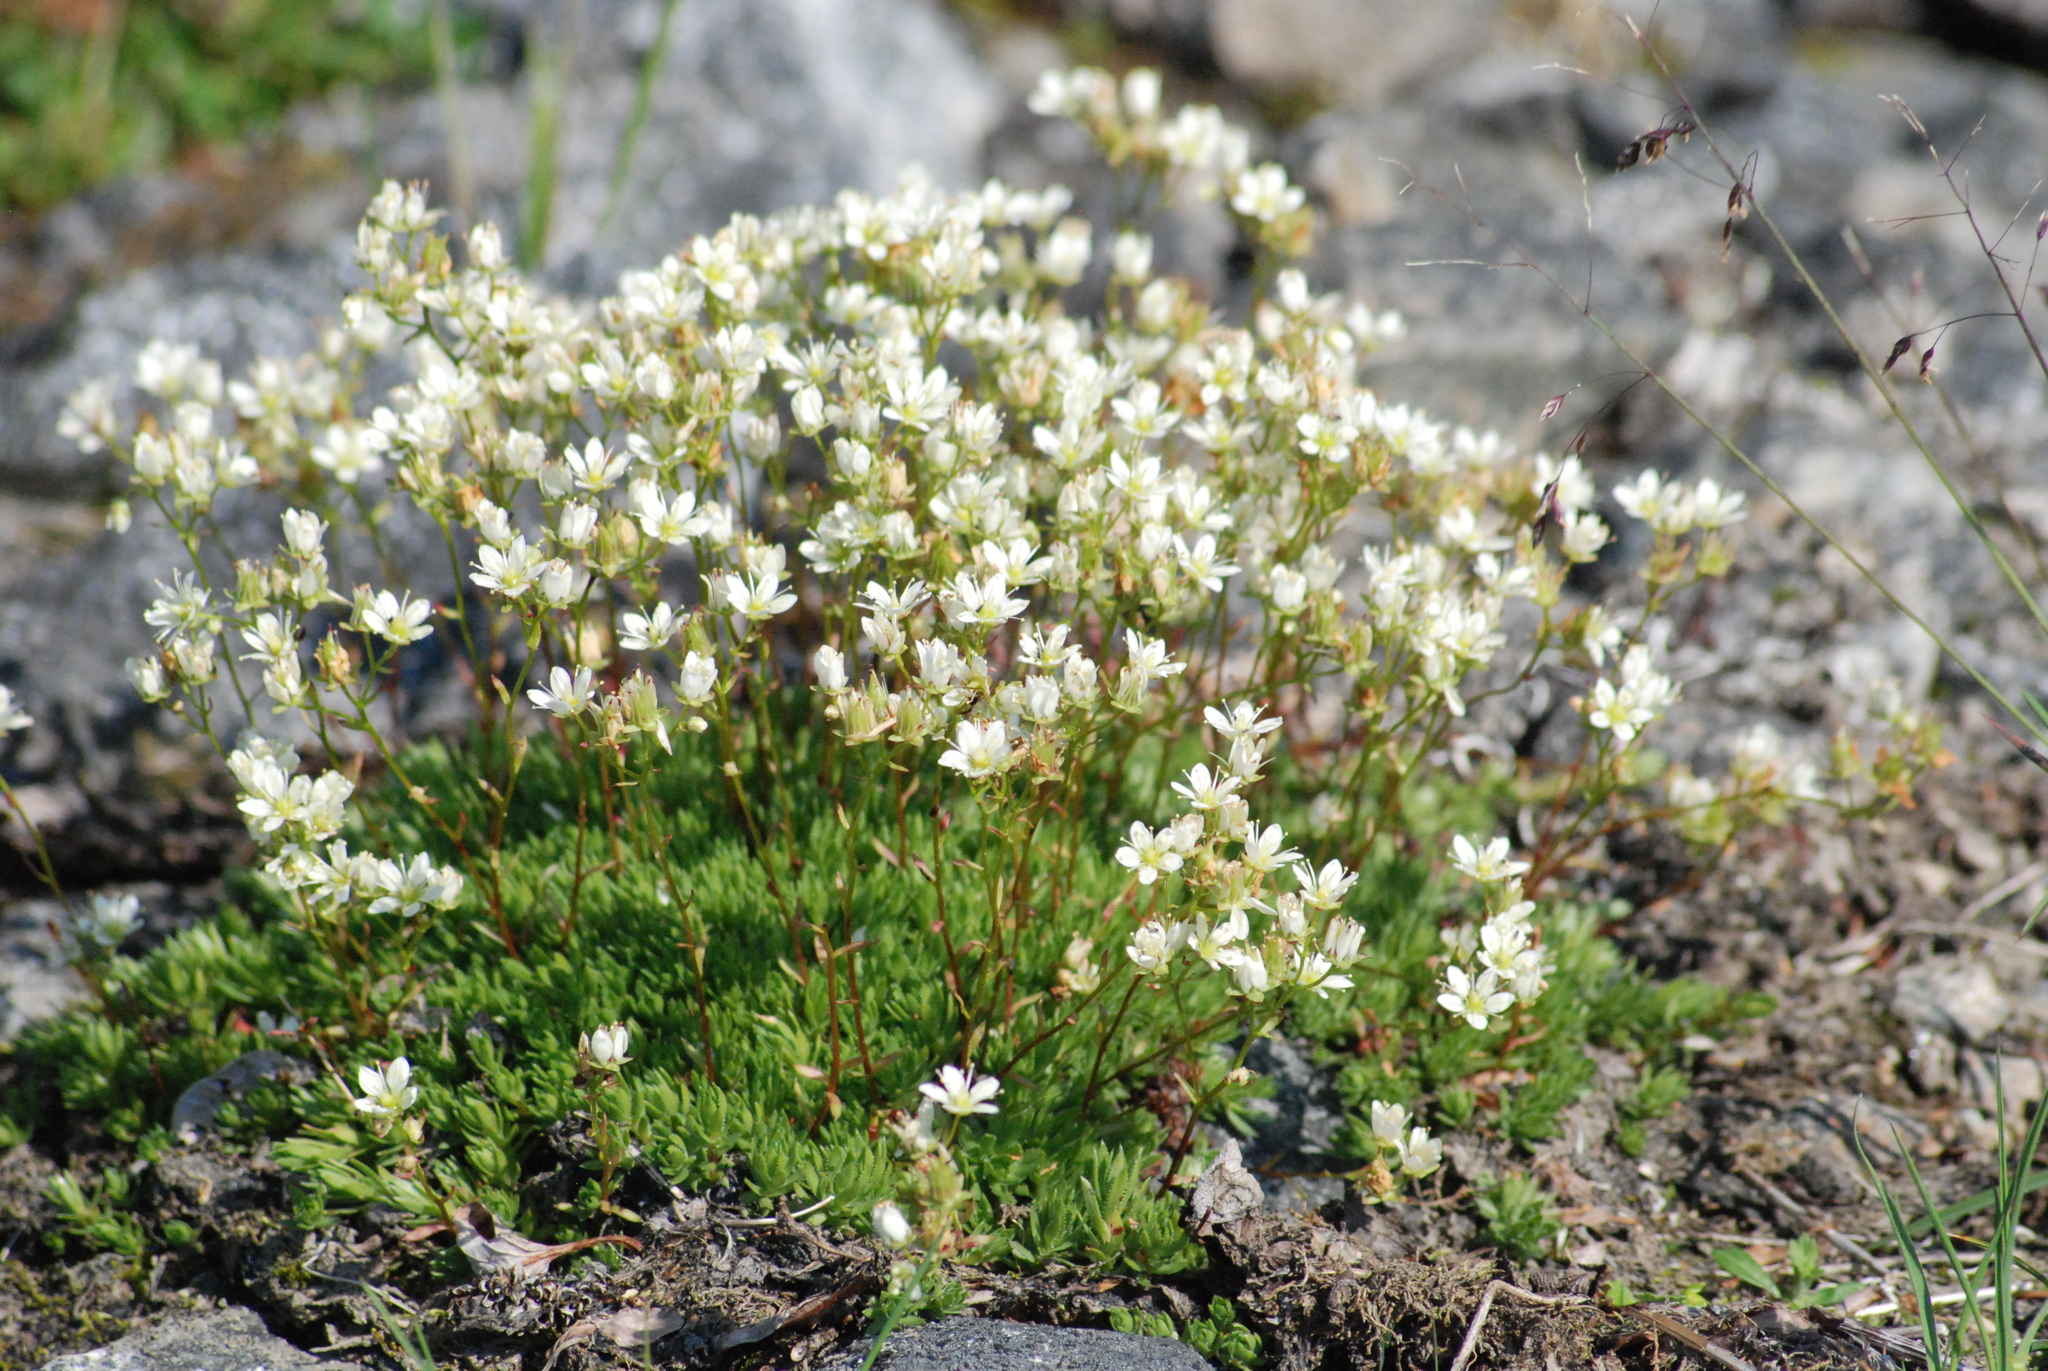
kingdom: Plantae
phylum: Tracheophyta
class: Magnoliopsida
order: Saxifragales
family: Saxifragaceae
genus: Saxifraga
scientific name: Saxifraga bronchialis
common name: Matted saxifrage
